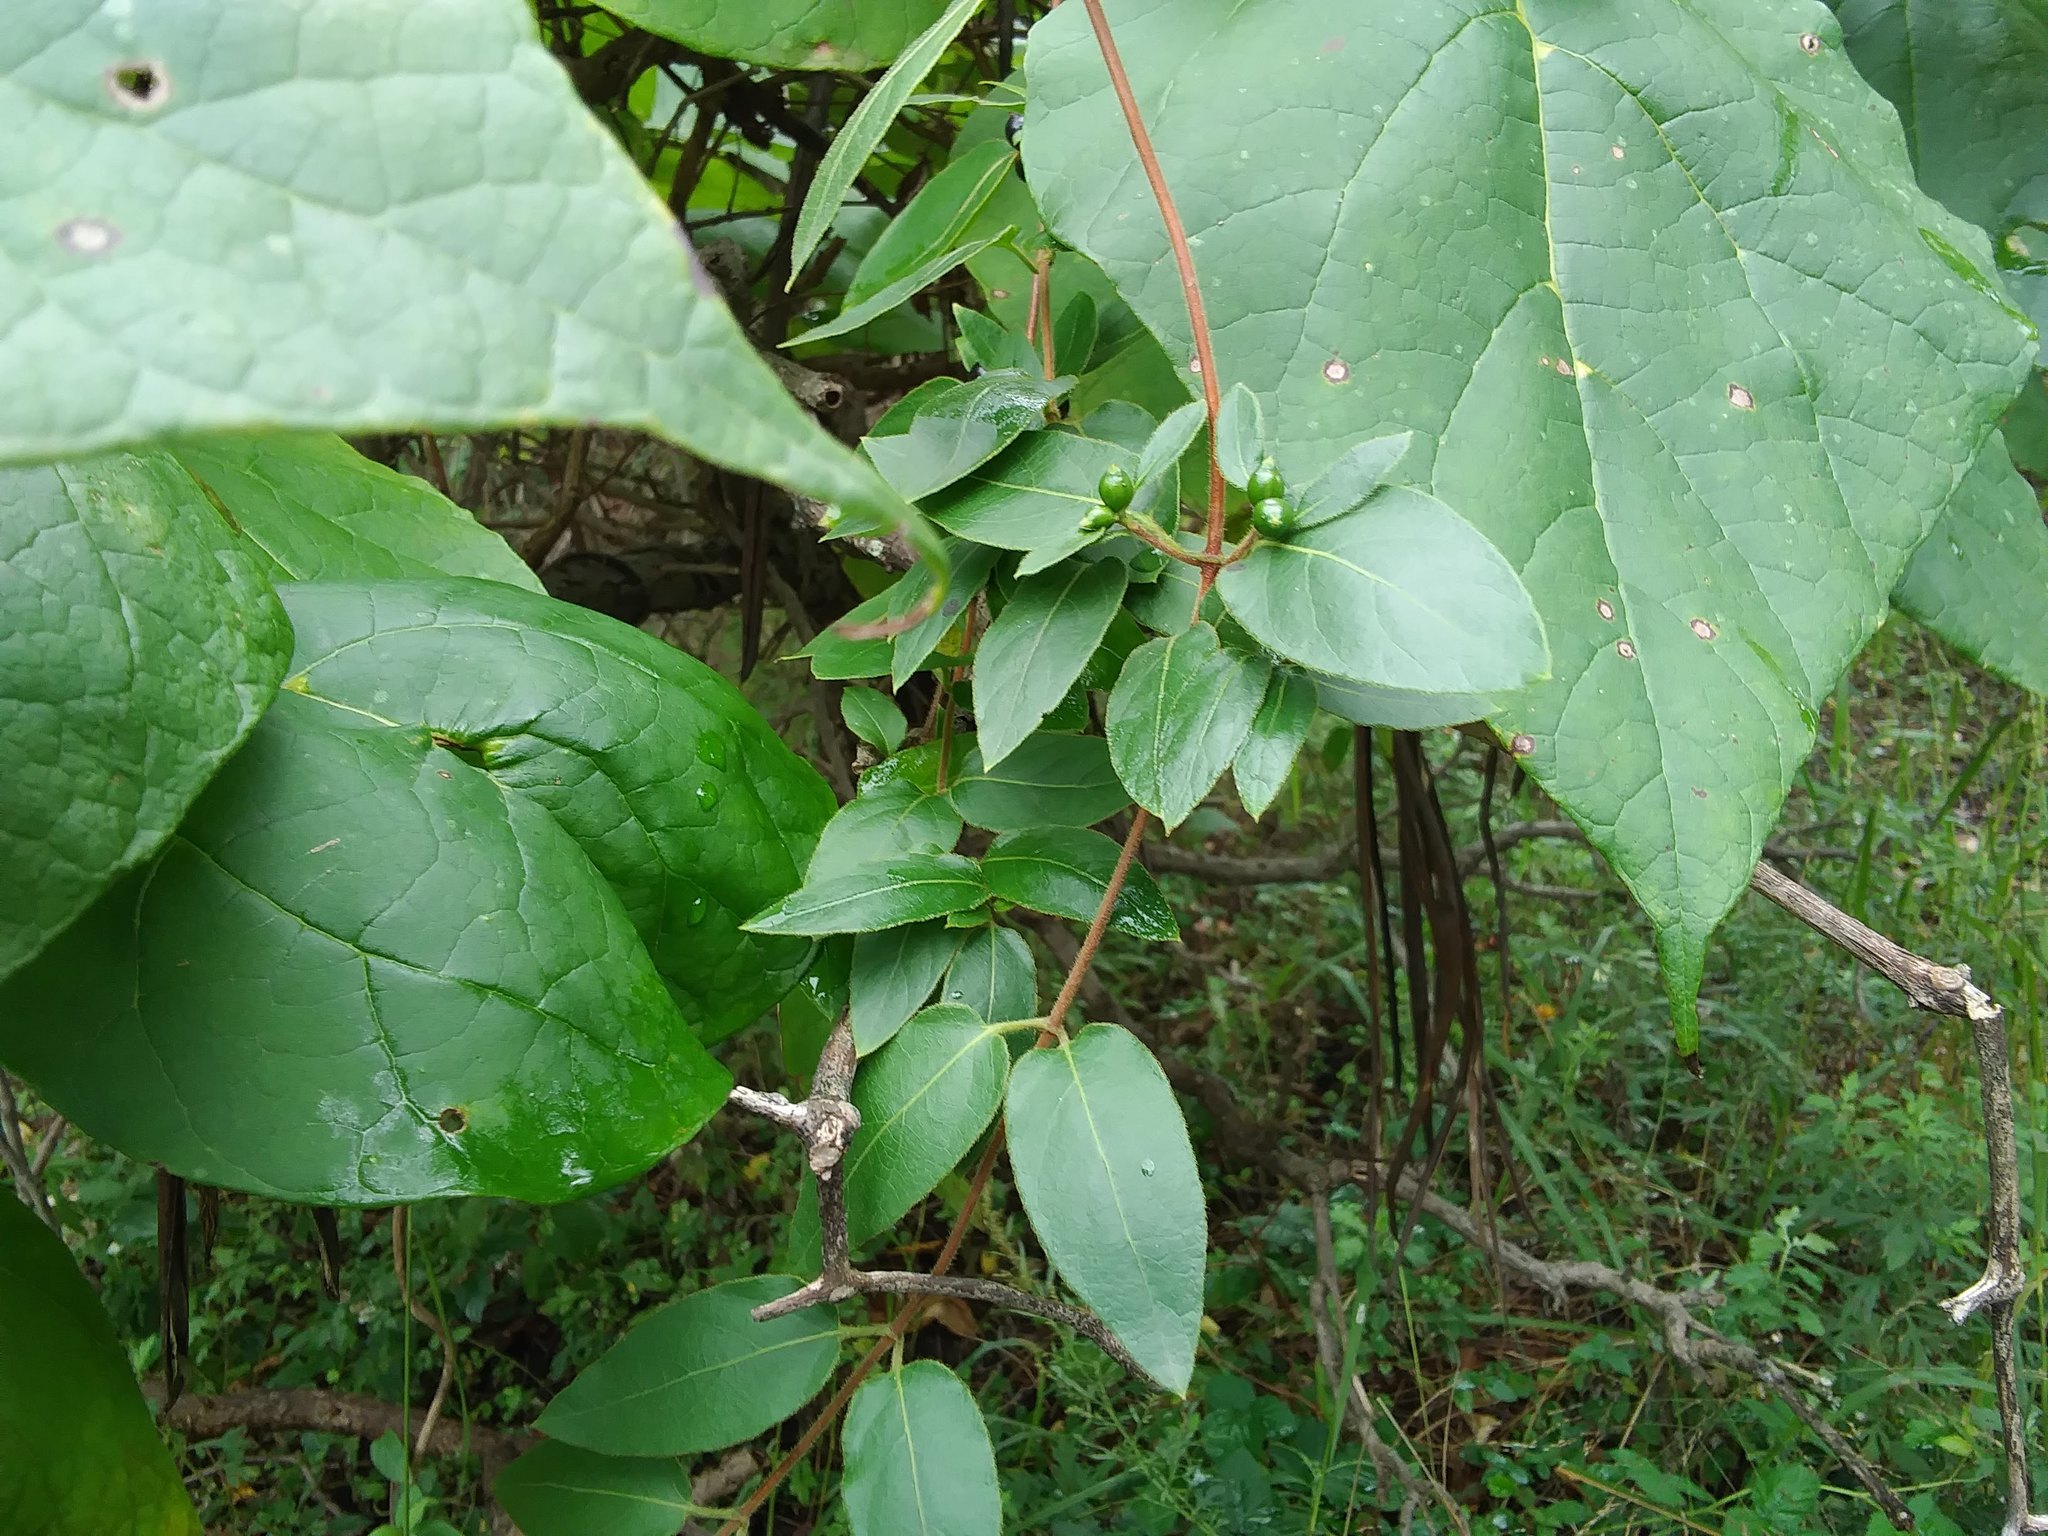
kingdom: Plantae
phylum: Tracheophyta
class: Magnoliopsida
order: Dipsacales
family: Caprifoliaceae
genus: Lonicera
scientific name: Lonicera japonica
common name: Japanese honeysuckle
